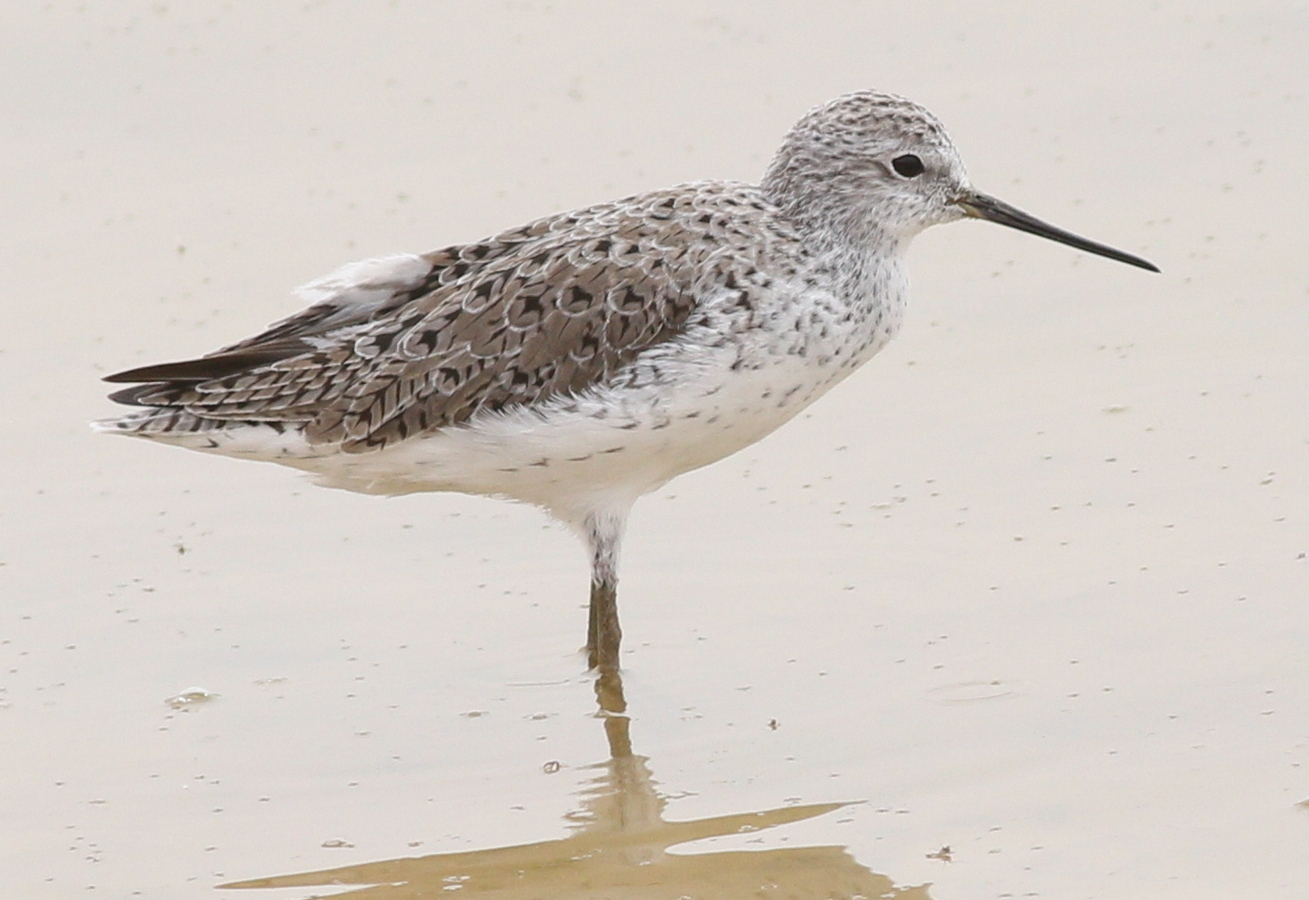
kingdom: Animalia
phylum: Chordata
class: Aves
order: Charadriiformes
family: Scolopacidae
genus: Tringa
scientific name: Tringa stagnatilis
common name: Marsh sandpiper
